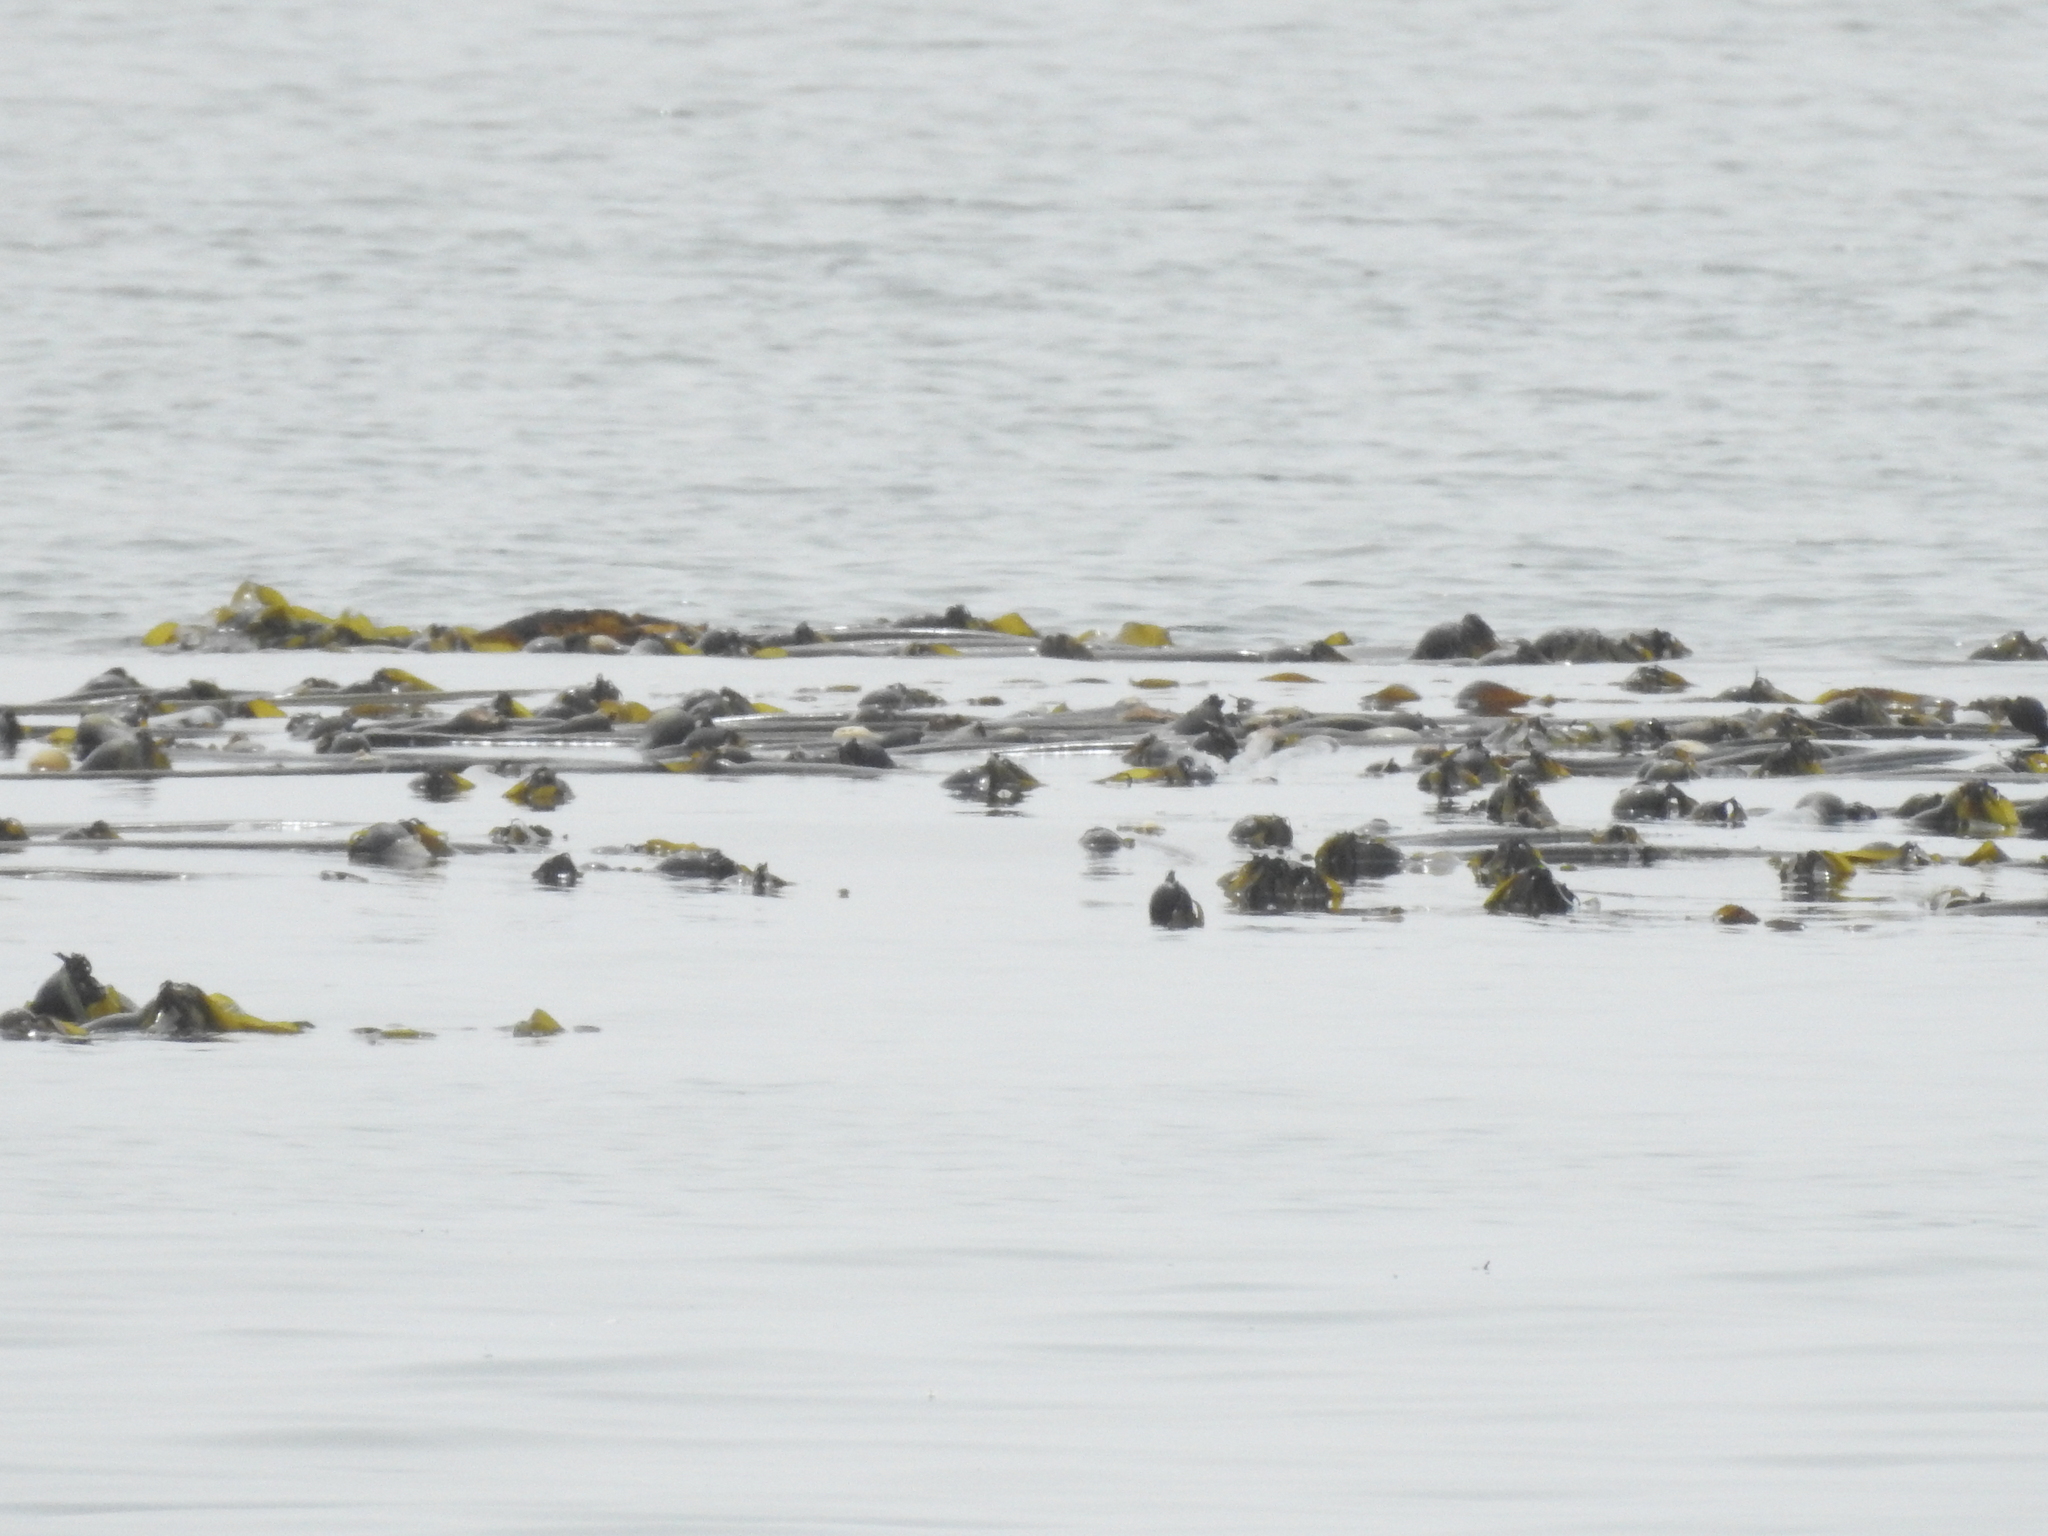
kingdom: Chromista
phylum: Ochrophyta
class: Phaeophyceae
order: Laminariales
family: Laminariaceae
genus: Nereocystis
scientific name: Nereocystis luetkeana
